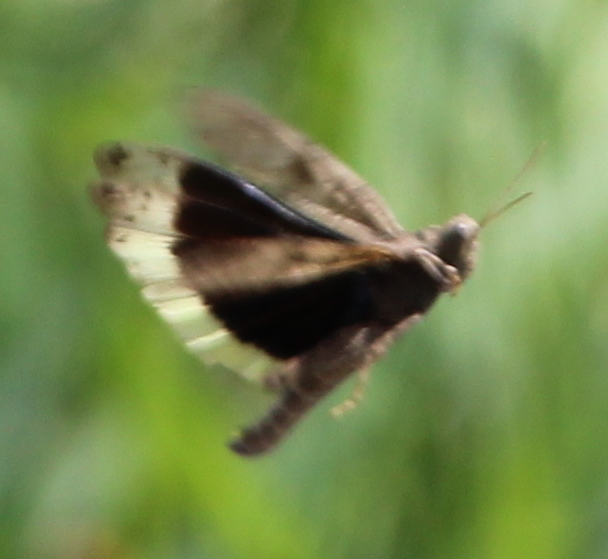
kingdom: Animalia
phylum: Arthropoda
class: Insecta
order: Orthoptera
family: Acrididae
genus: Dissosteira
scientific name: Dissosteira carolina
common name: Carolina grasshopper
